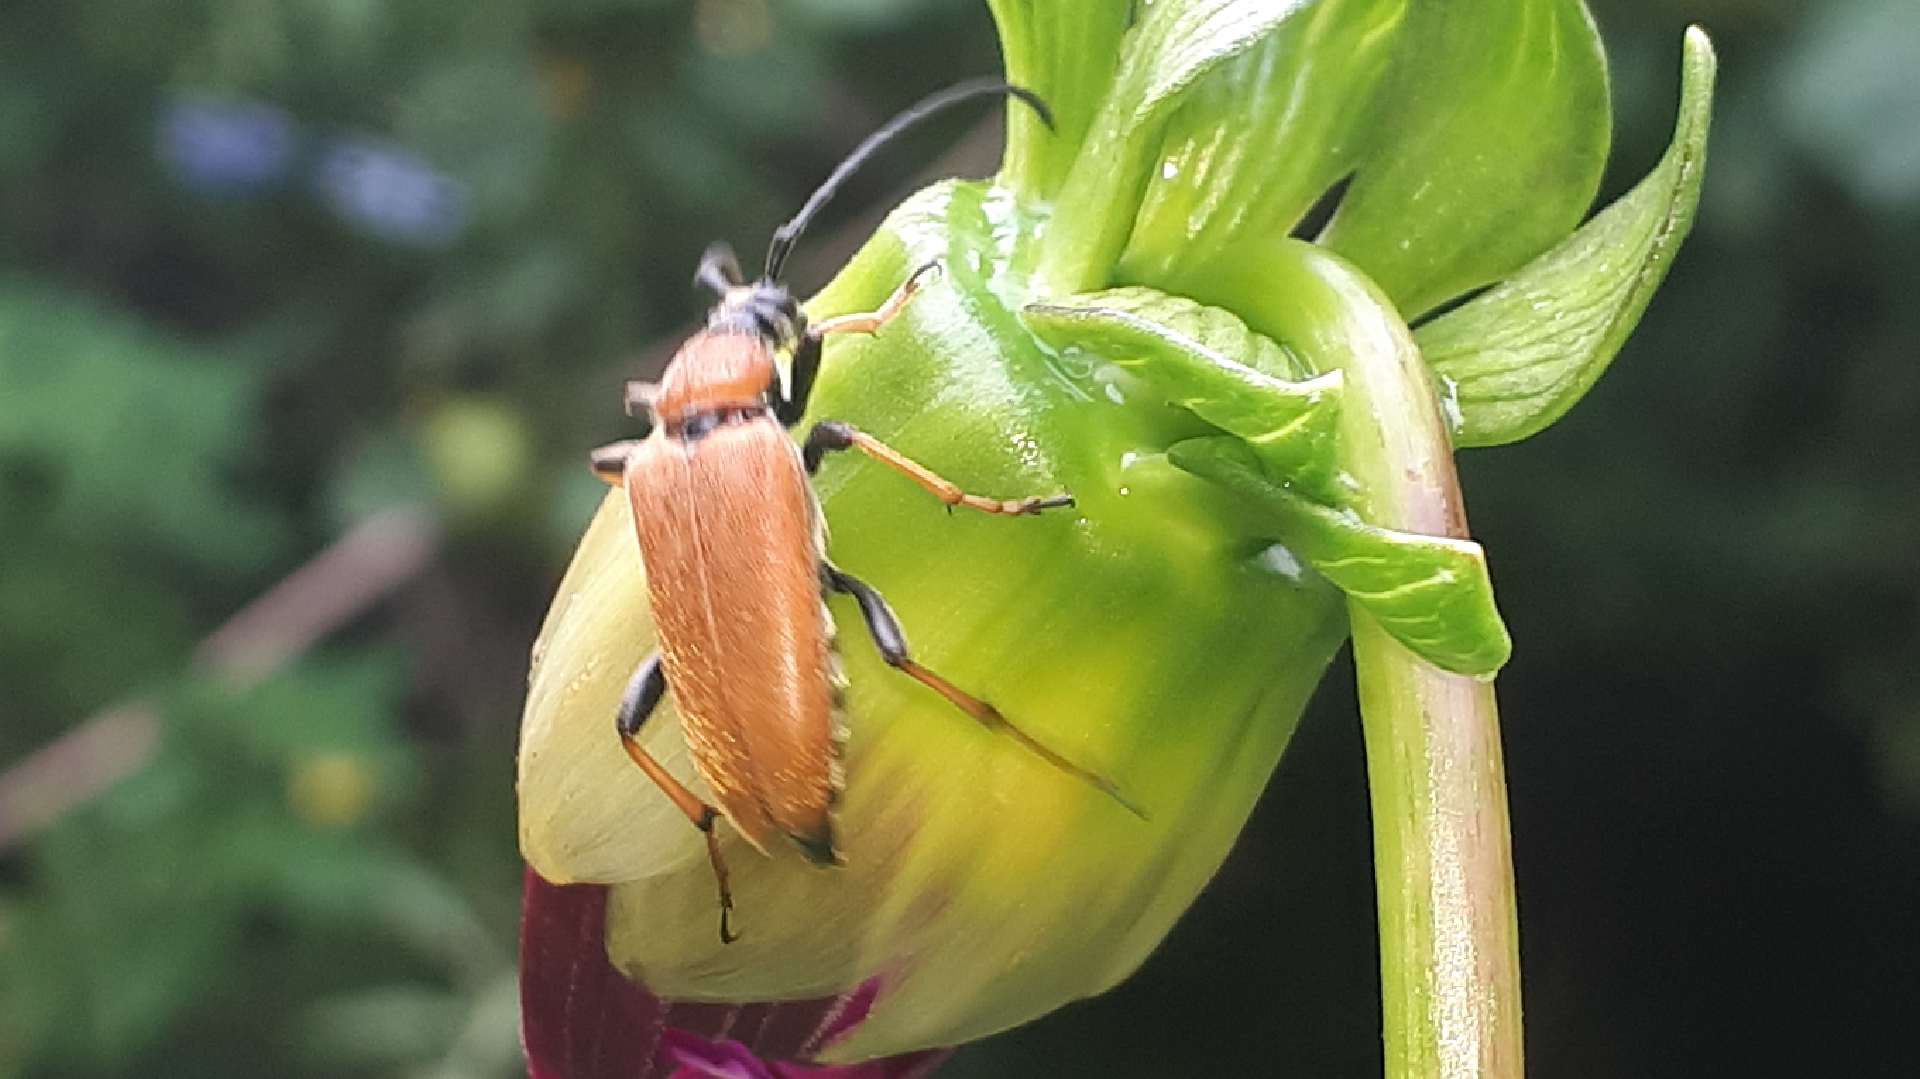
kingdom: Animalia
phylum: Arthropoda
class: Insecta
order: Coleoptera
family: Cerambycidae
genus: Stictoleptura
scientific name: Stictoleptura rubra
